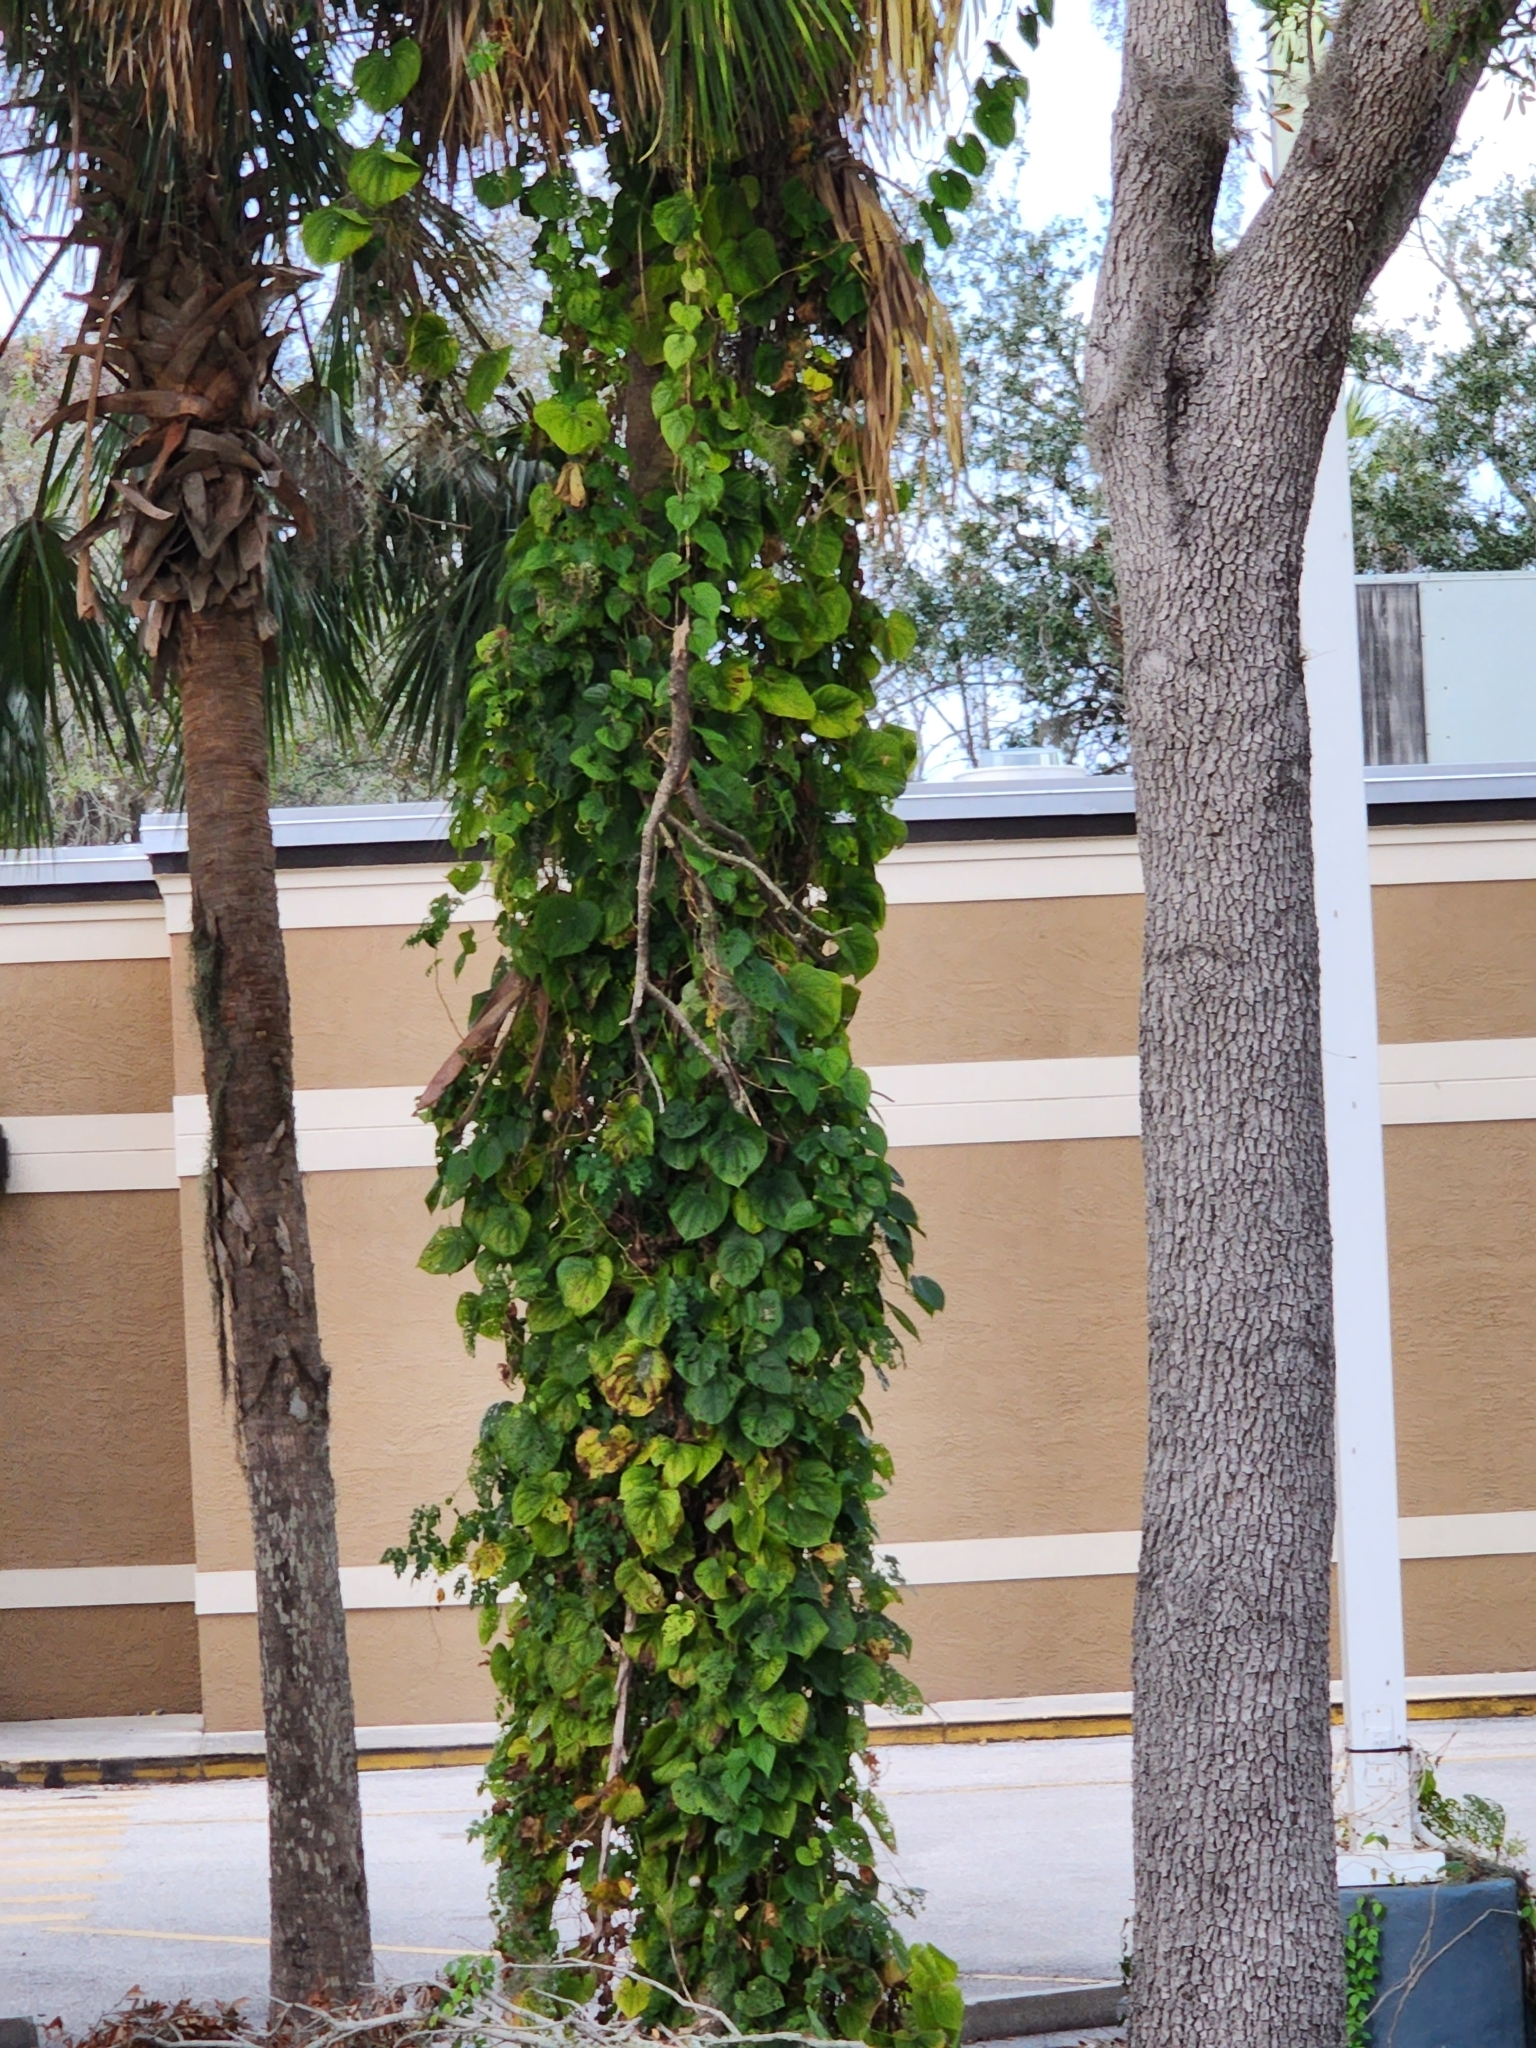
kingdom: Plantae
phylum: Tracheophyta
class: Liliopsida
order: Dioscoreales
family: Dioscoreaceae
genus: Dioscorea
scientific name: Dioscorea bulbifera
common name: Air yam
